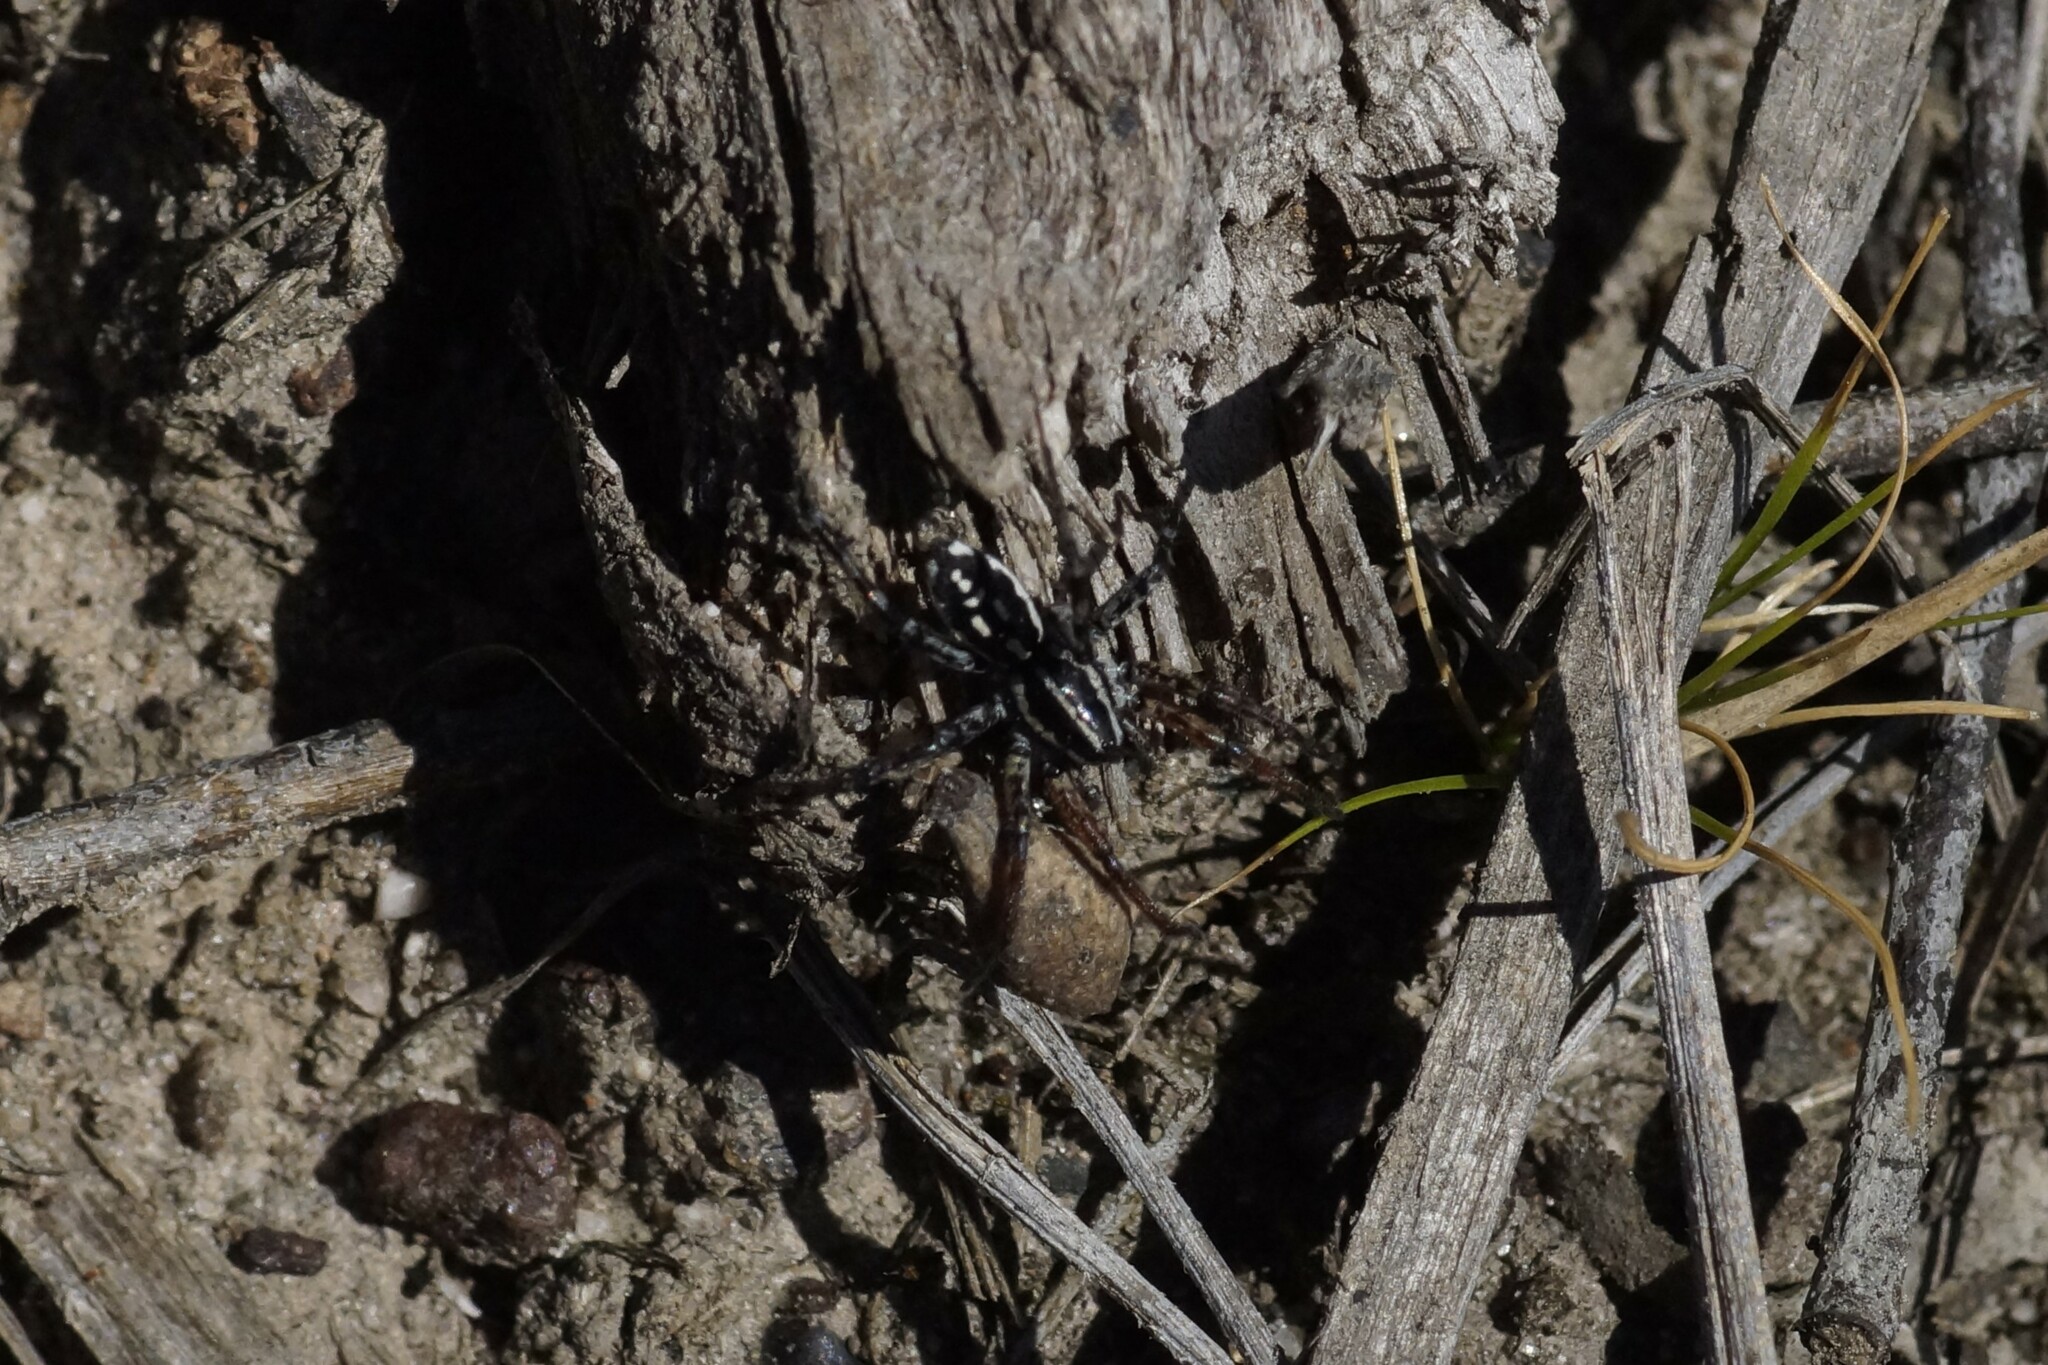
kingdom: Animalia
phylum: Arthropoda
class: Arachnida
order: Araneae
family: Corinnidae
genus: Nyssus
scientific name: Nyssus coloripes
